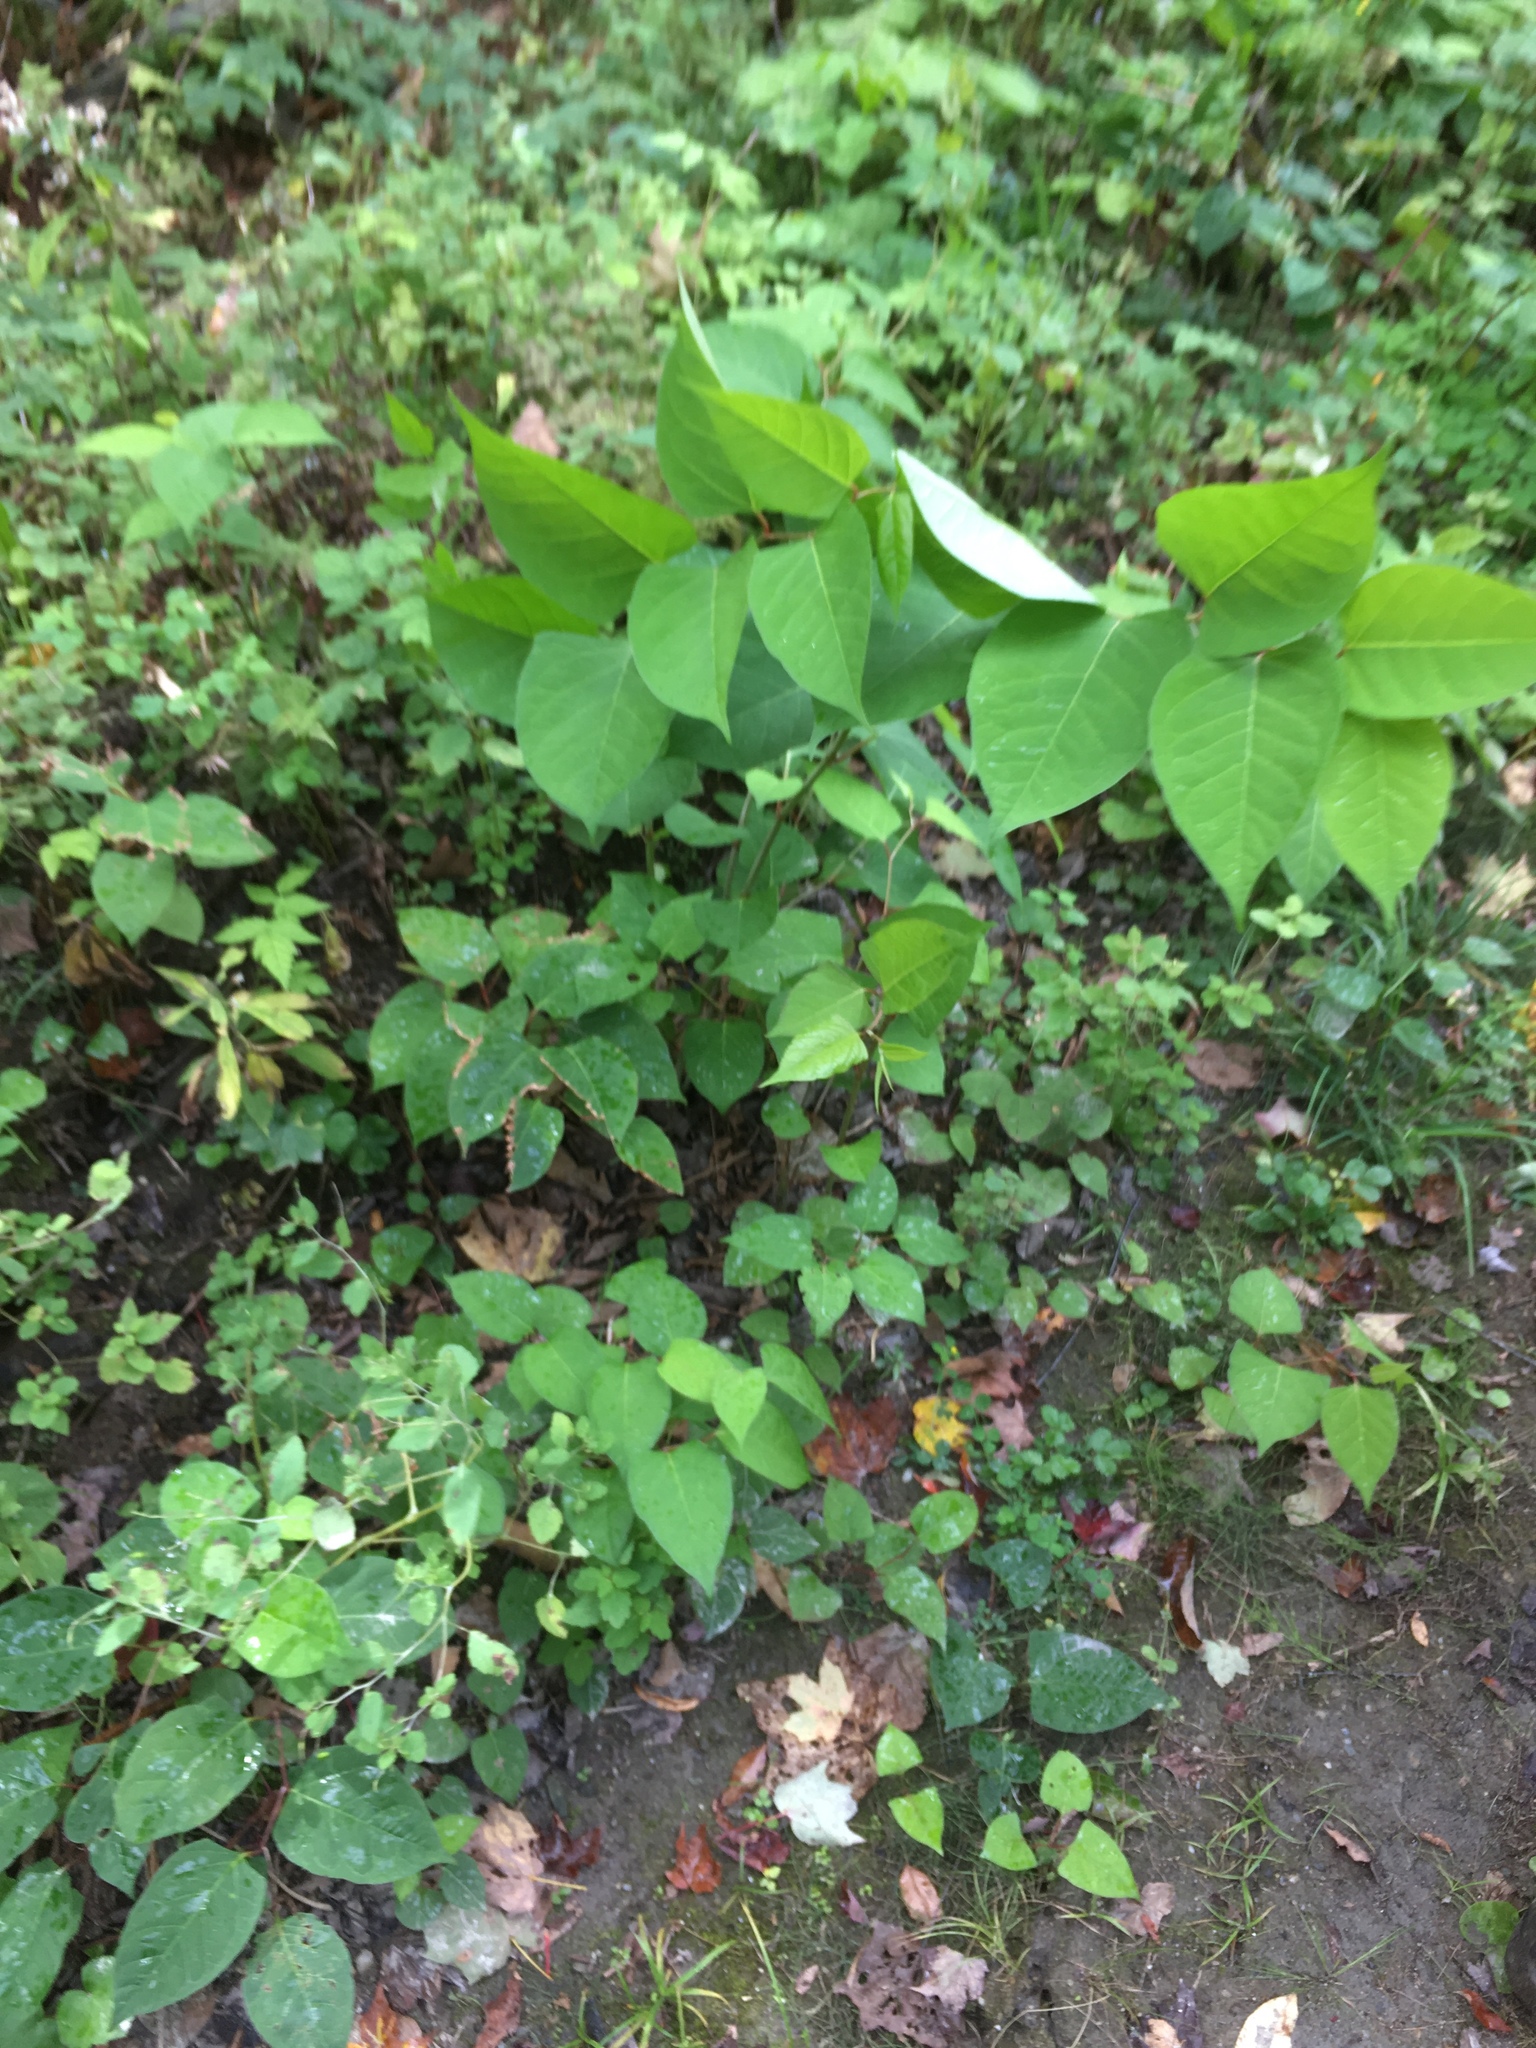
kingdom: Plantae
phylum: Tracheophyta
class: Magnoliopsida
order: Caryophyllales
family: Polygonaceae
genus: Reynoutria
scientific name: Reynoutria japonica
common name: Japanese knotweed
